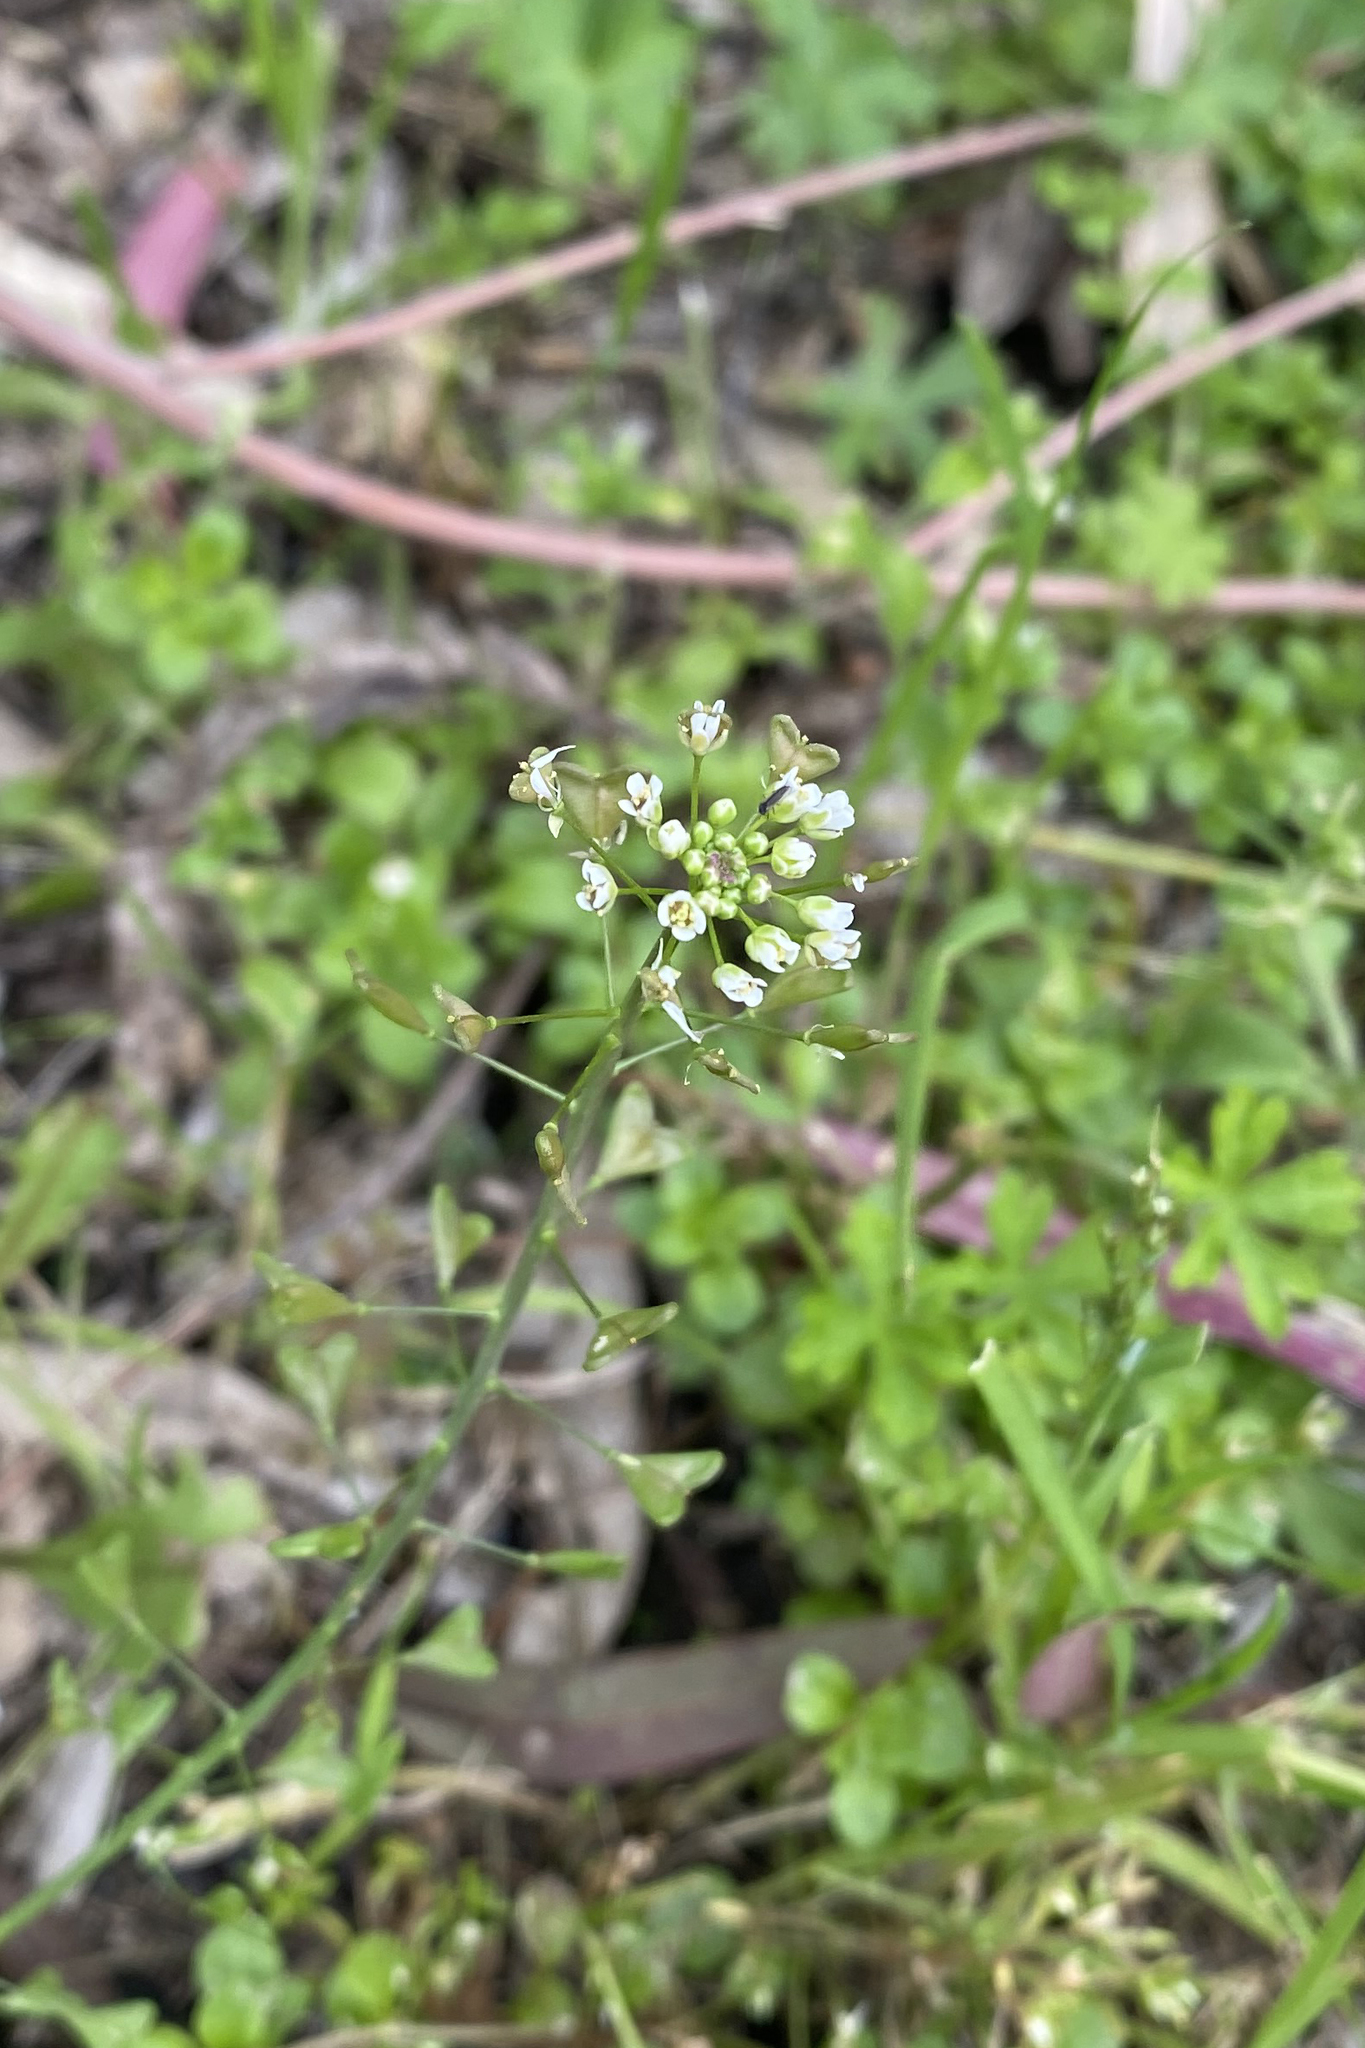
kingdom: Plantae
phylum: Tracheophyta
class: Magnoliopsida
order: Brassicales
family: Brassicaceae
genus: Capsella
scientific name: Capsella bursa-pastoris
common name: Shepherd's purse
